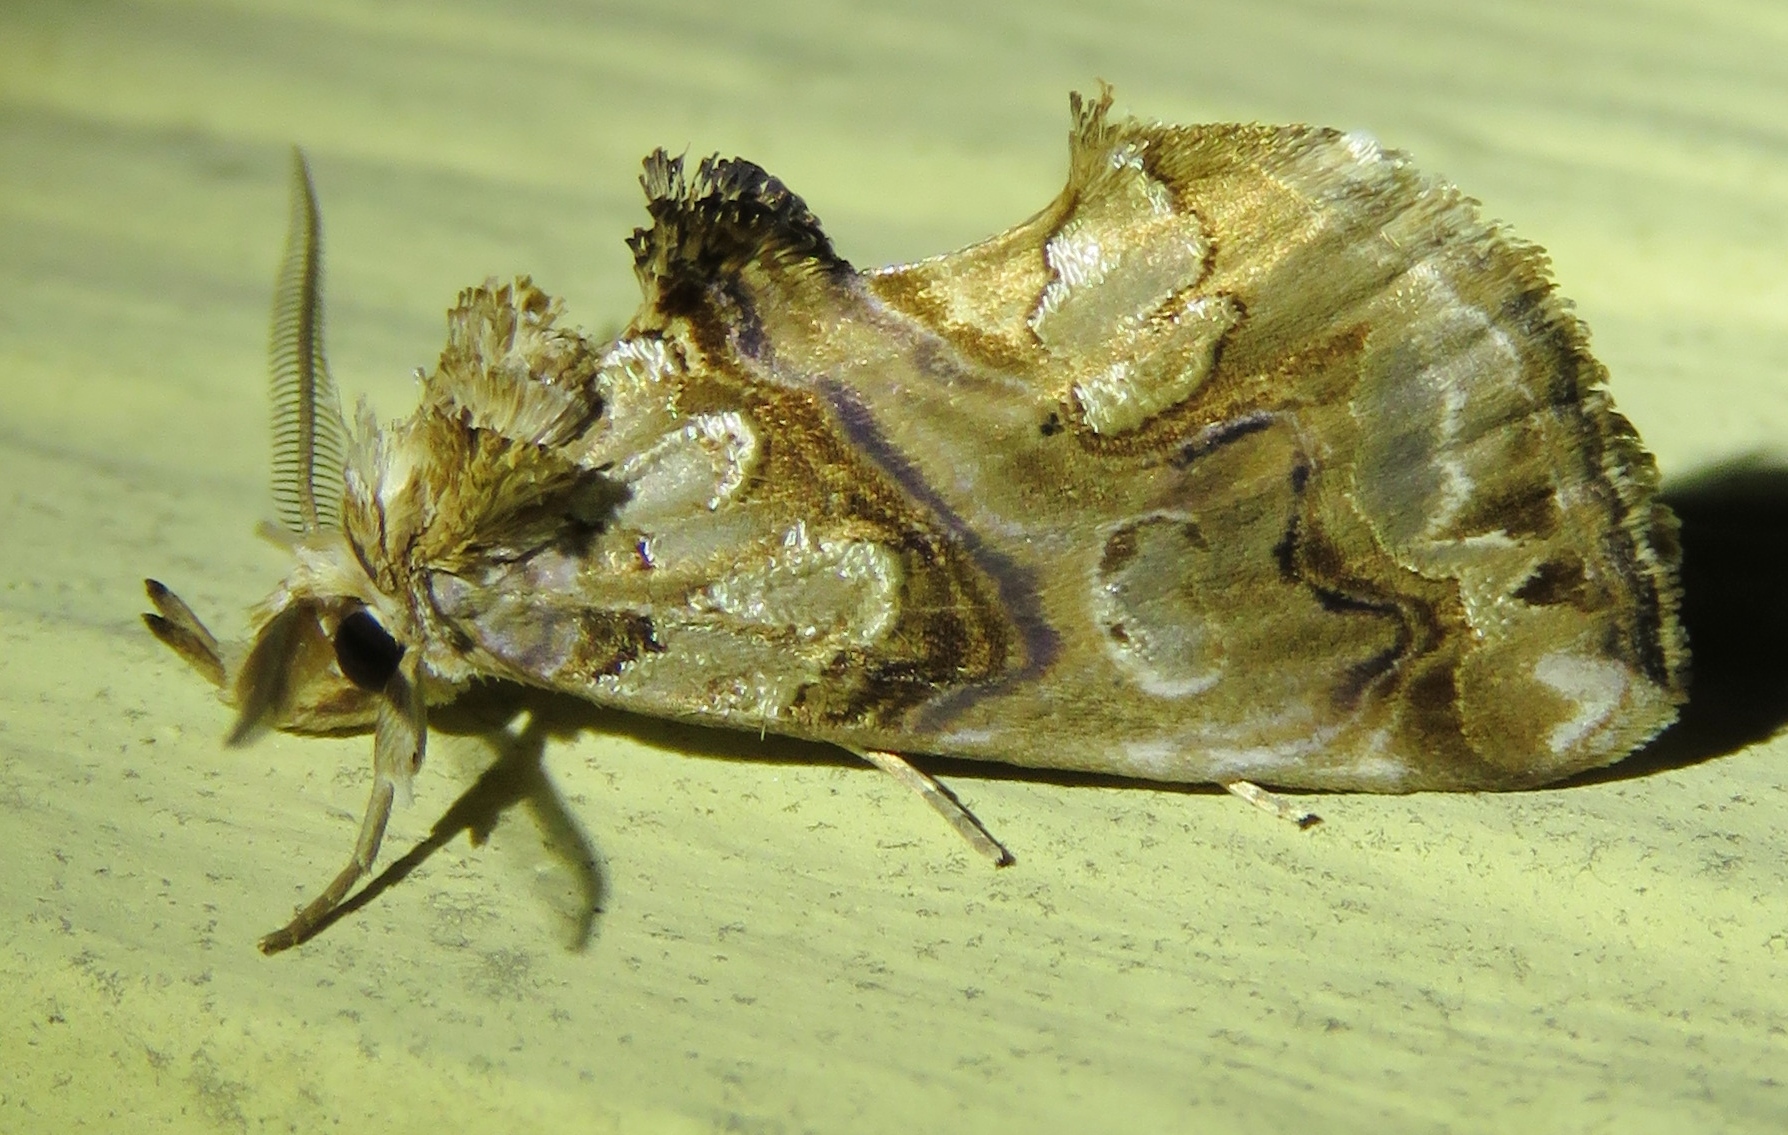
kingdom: Animalia
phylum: Arthropoda
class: Insecta
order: Lepidoptera
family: Erebidae
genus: Plusiodonta
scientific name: Plusiodonta compressipalpis
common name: Moonseed moth
